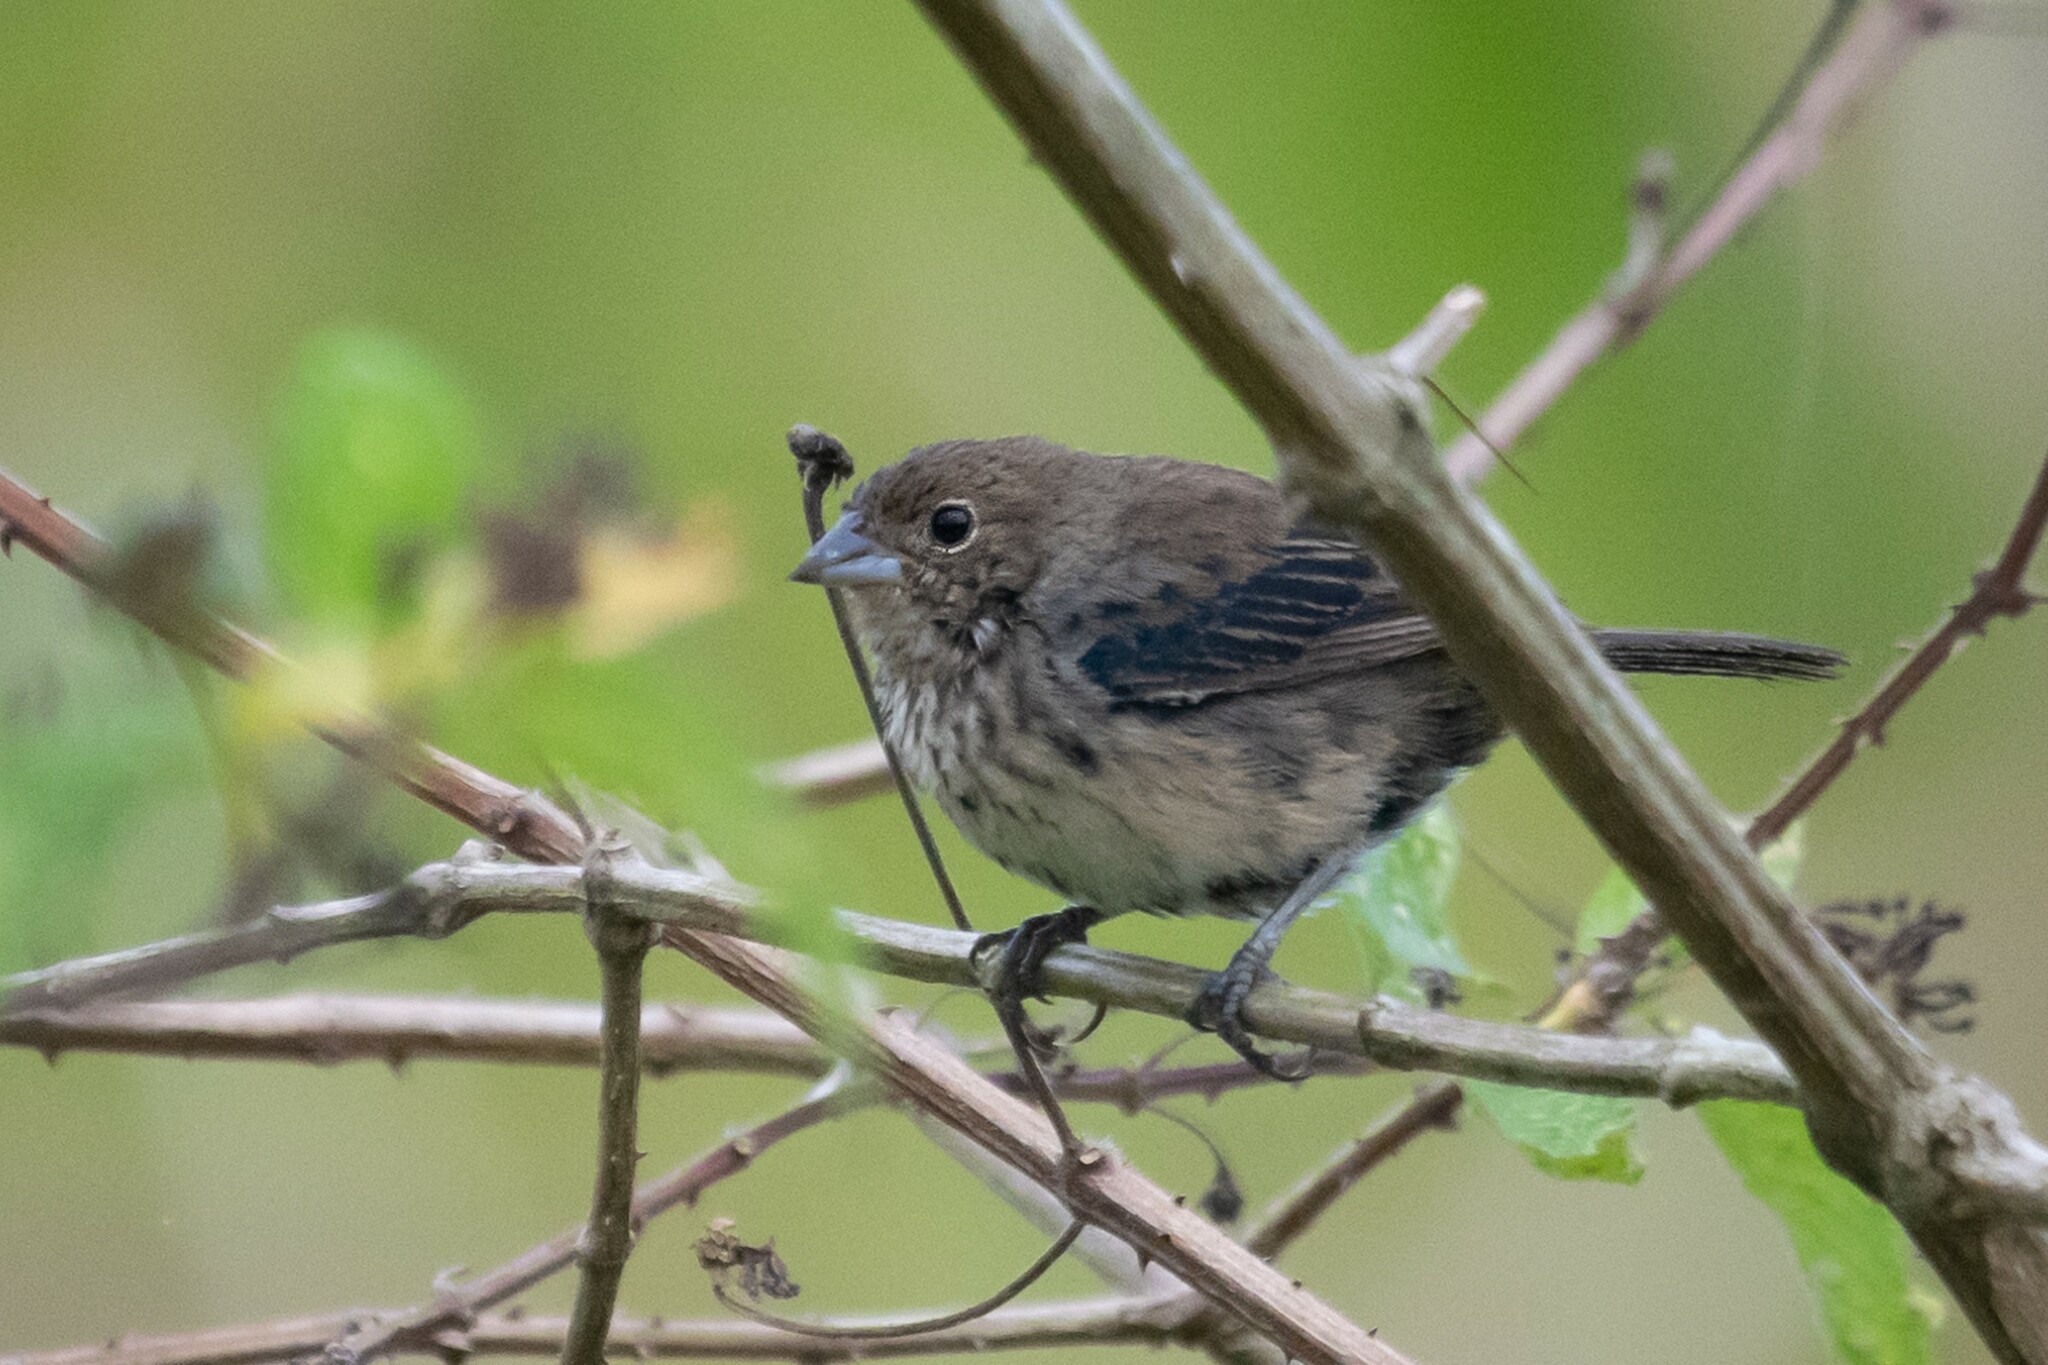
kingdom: Animalia
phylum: Chordata
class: Aves
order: Passeriformes
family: Thraupidae
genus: Volatinia
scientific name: Volatinia jacarina
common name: Blue-black grassquit
